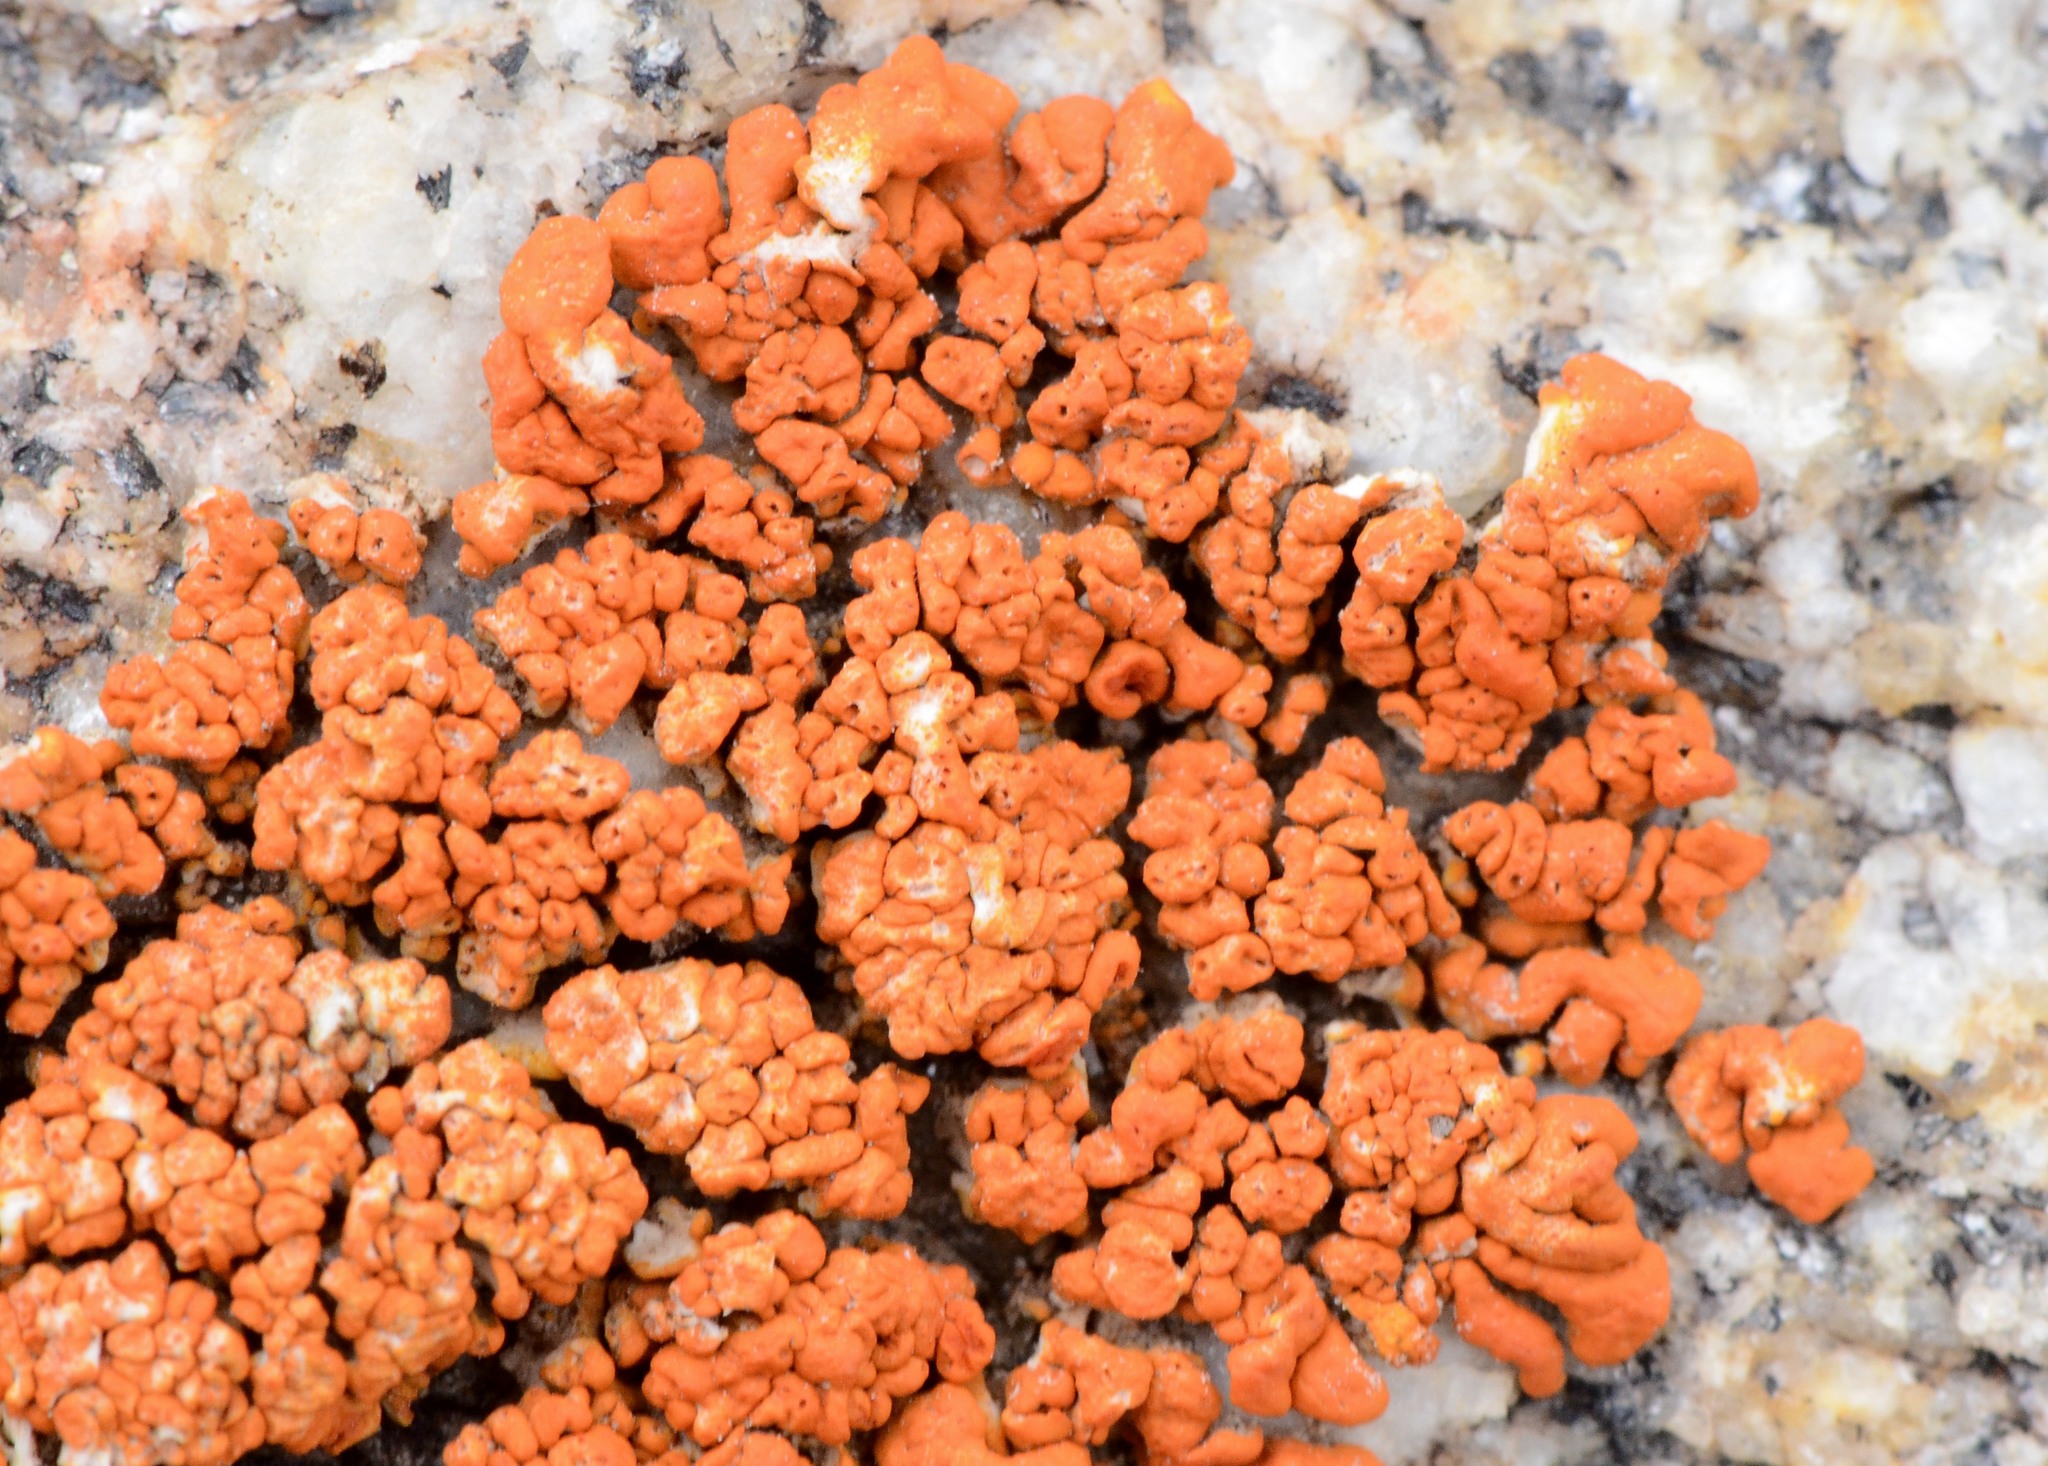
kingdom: Fungi
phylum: Ascomycota
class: Lecanoromycetes
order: Teloschistales
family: Teloschistaceae
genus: Xanthoria
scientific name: Xanthoria elegans
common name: Elegant sunburst lichen
